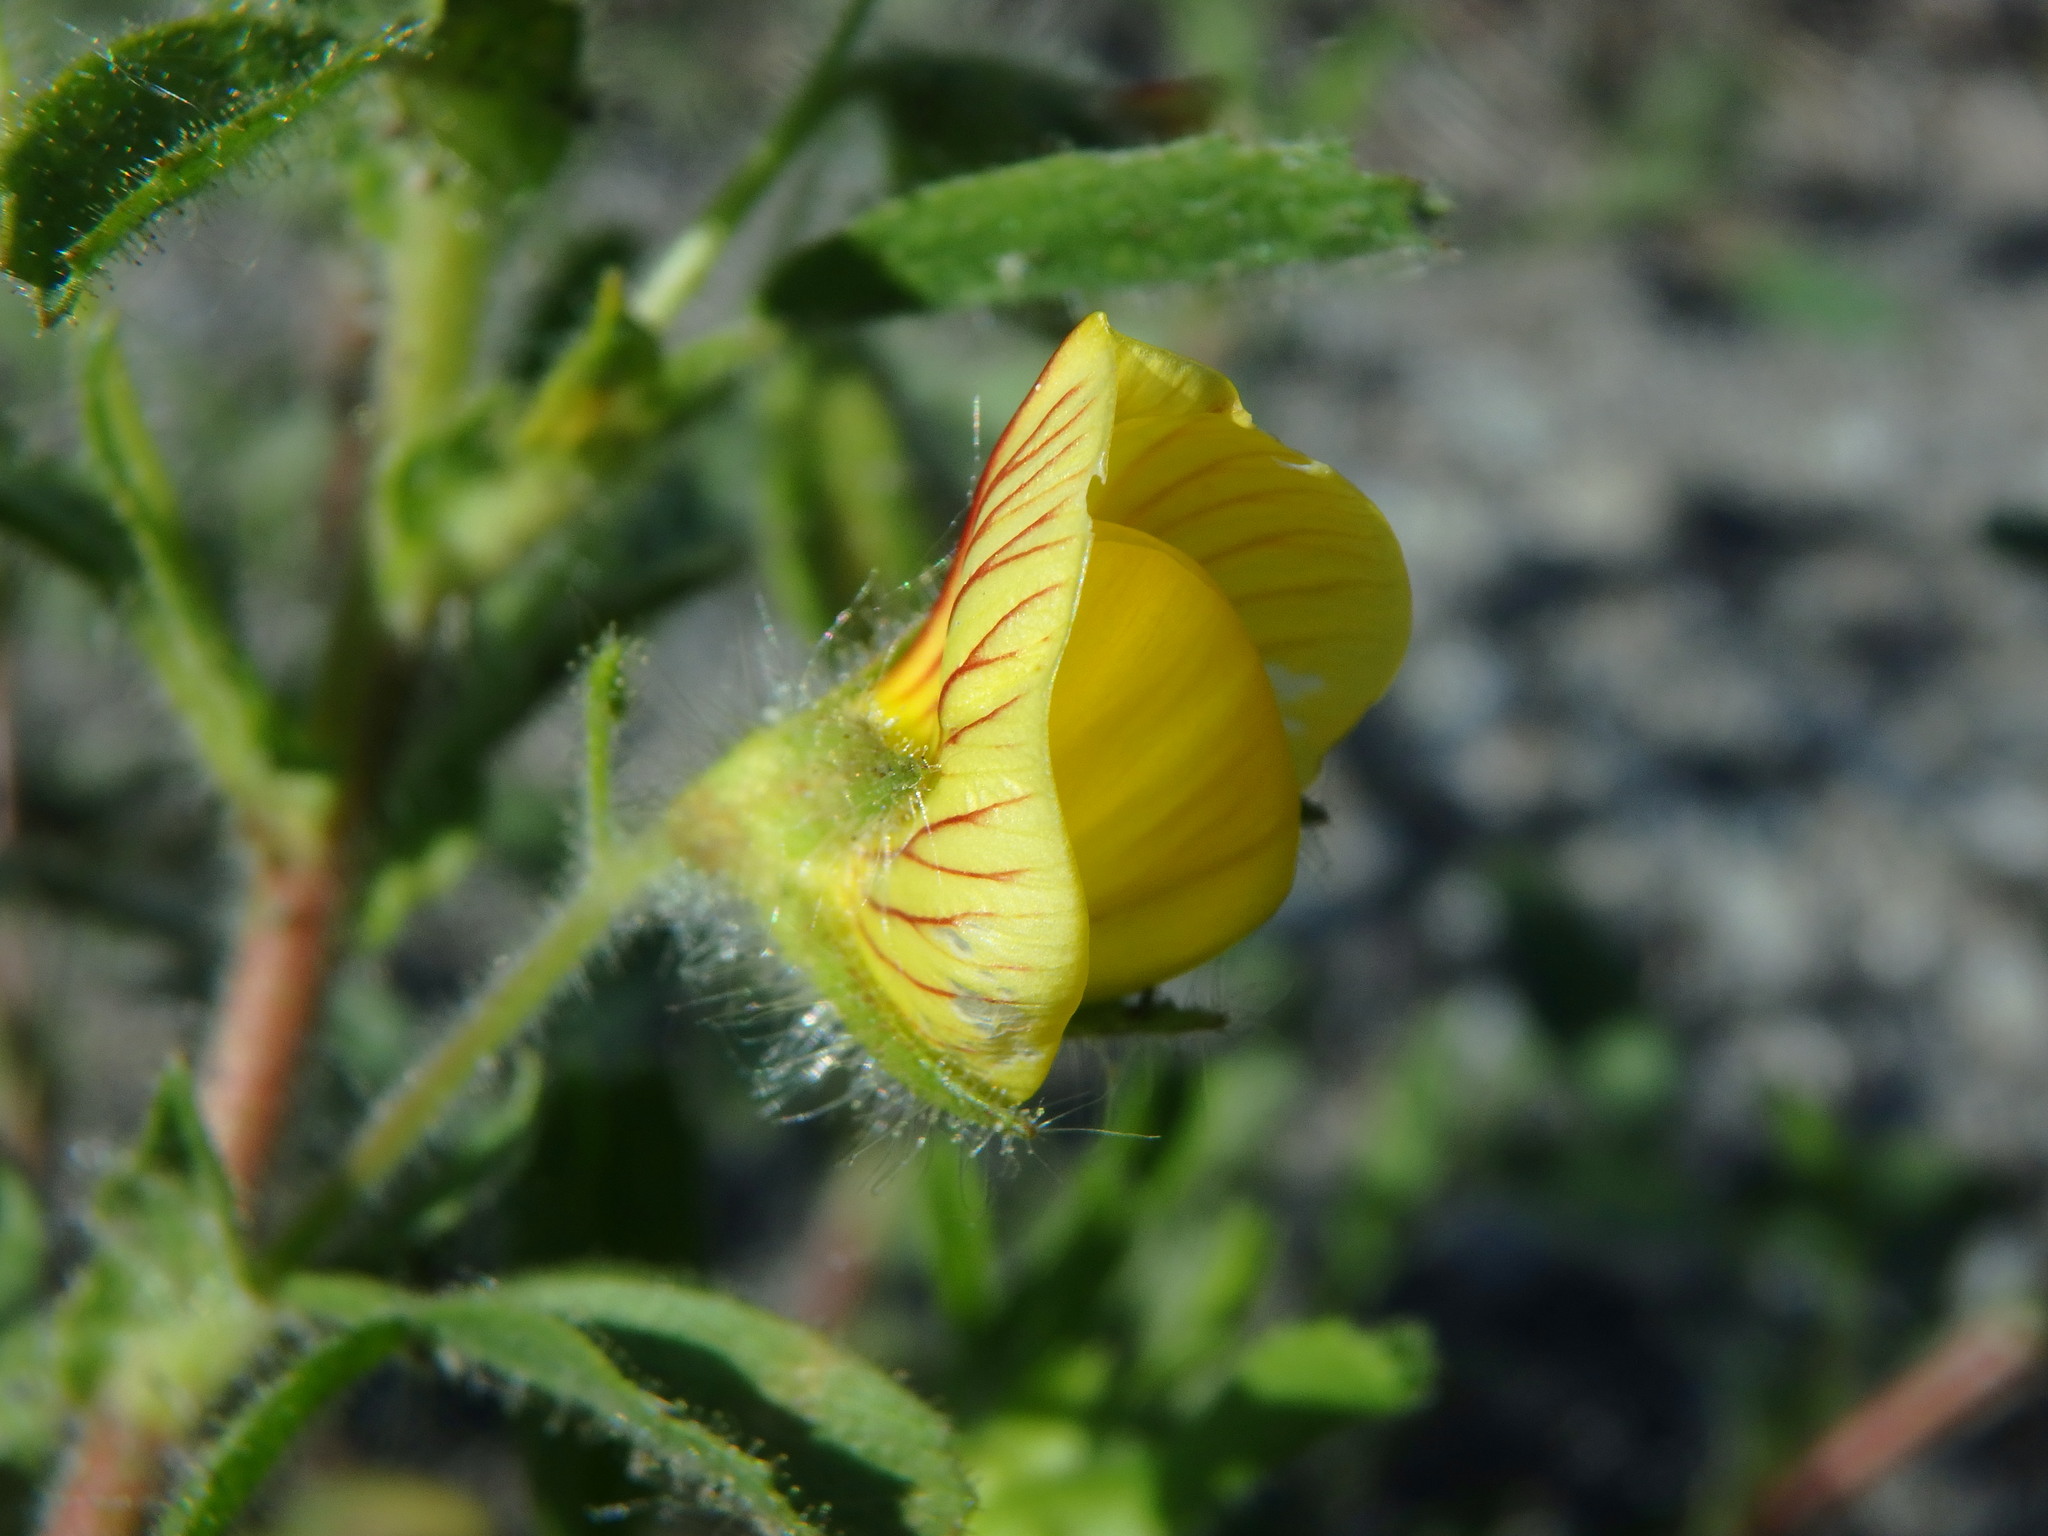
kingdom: Plantae
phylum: Tracheophyta
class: Magnoliopsida
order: Fabales
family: Fabaceae
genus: Ononis
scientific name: Ononis natrix
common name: Yellow restharrow
